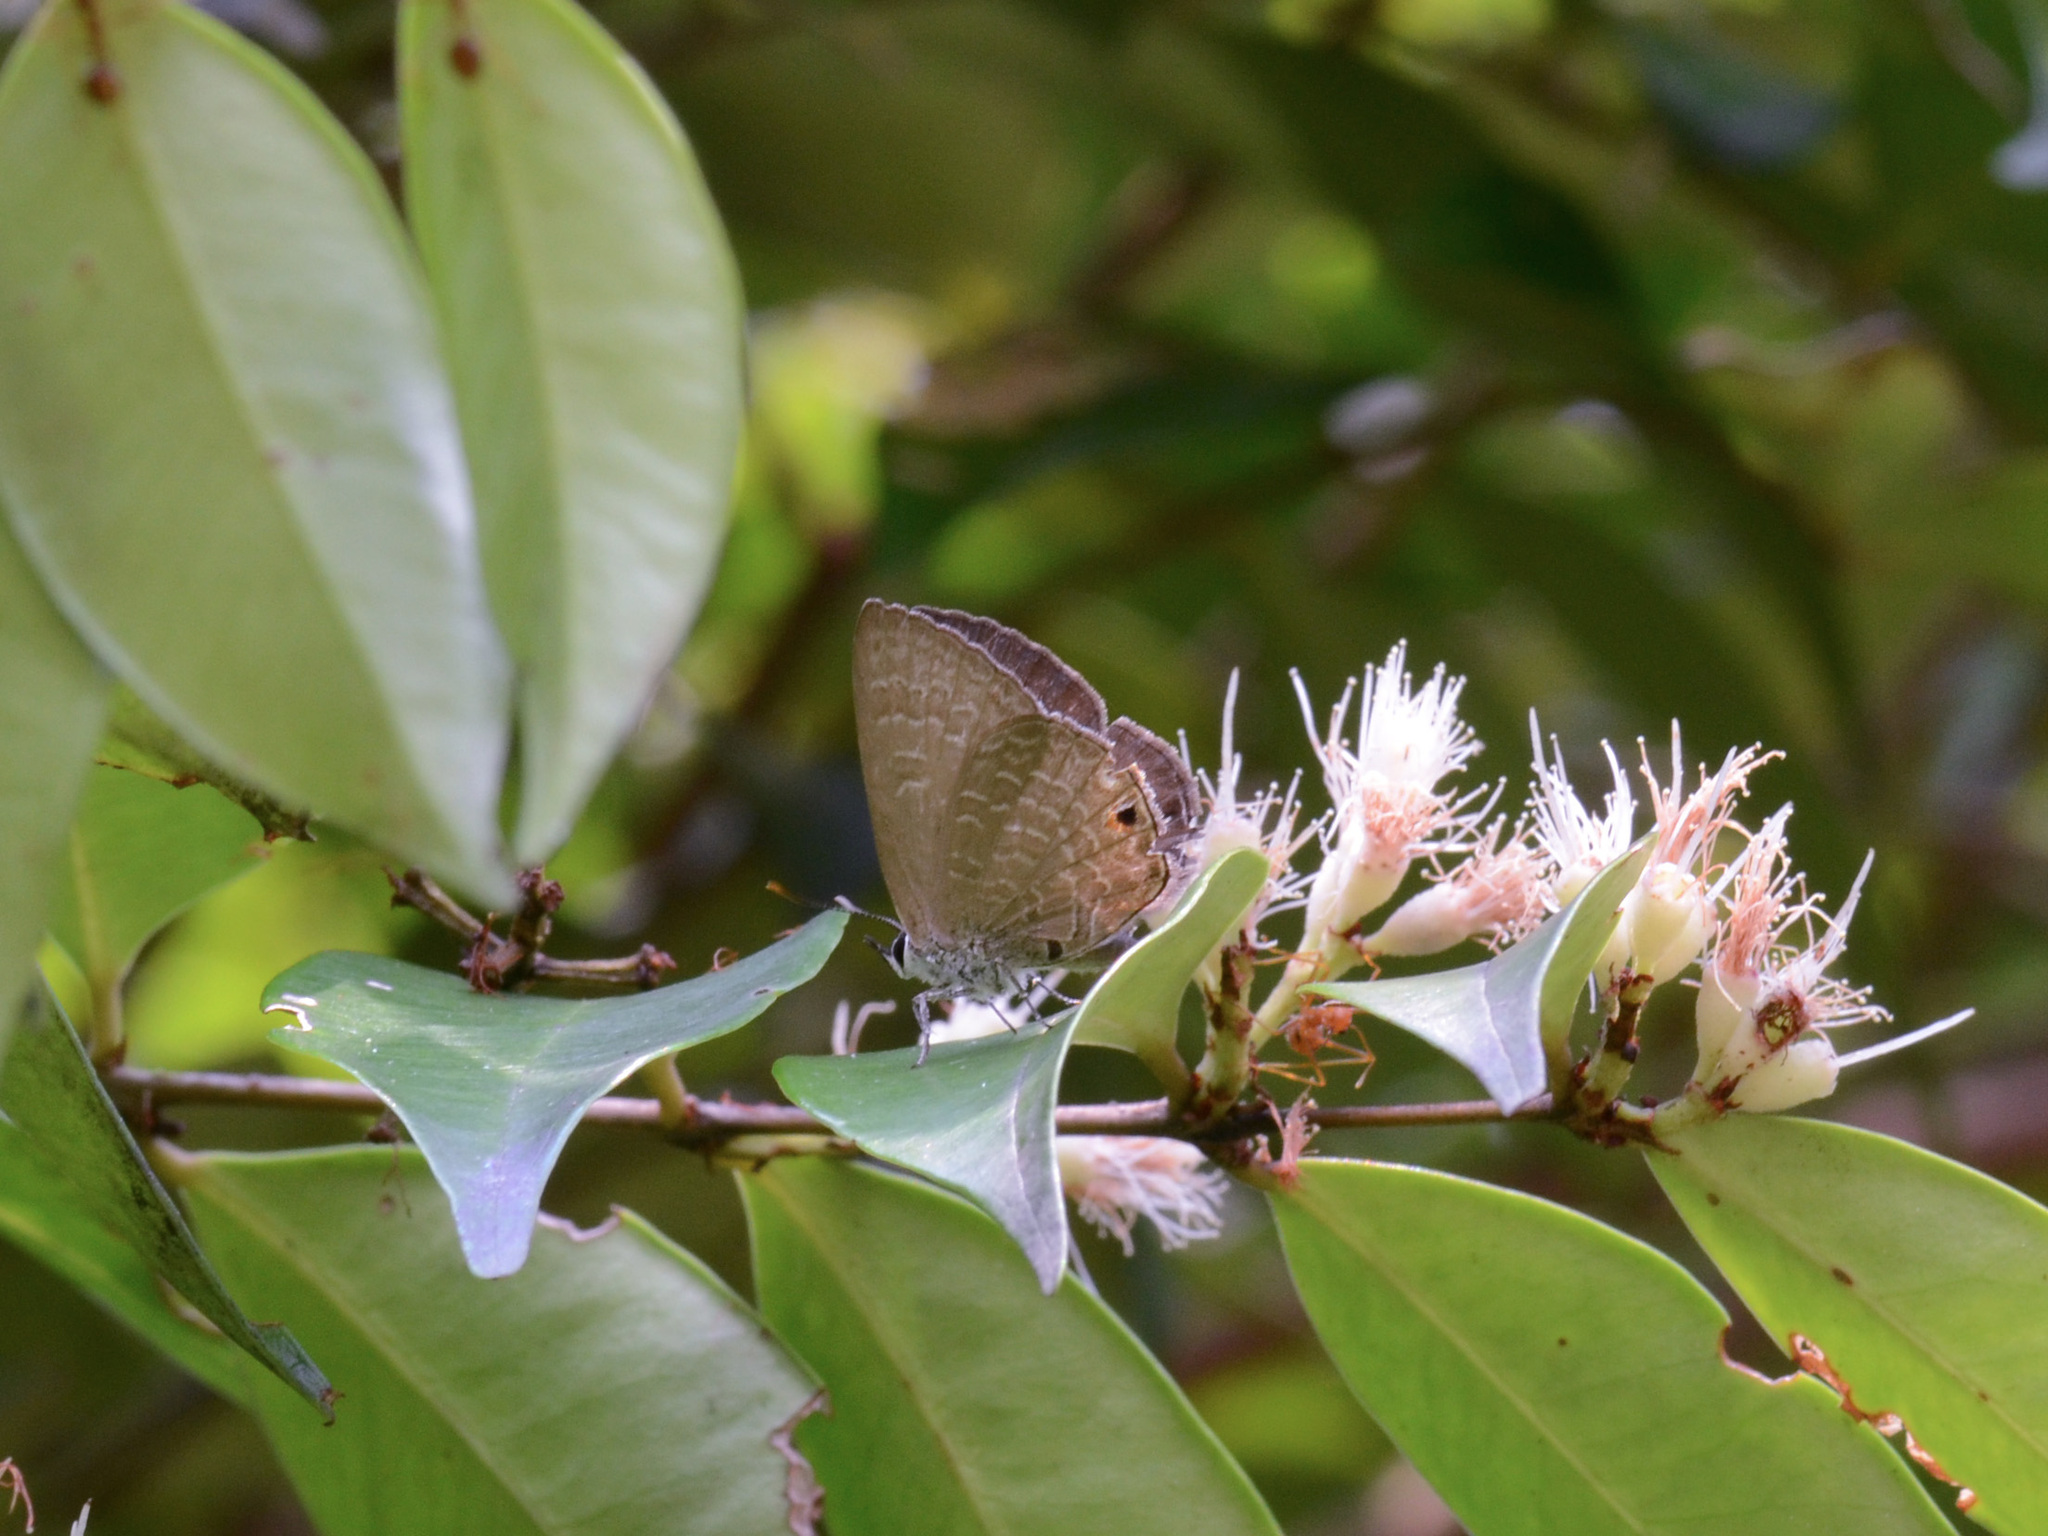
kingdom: Animalia
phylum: Arthropoda
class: Insecta
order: Lepidoptera
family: Lycaenidae
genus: Anthene
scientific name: Anthene emolus
